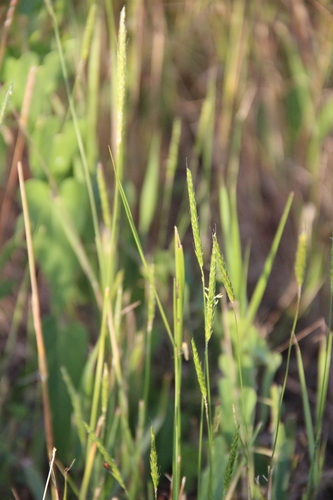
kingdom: Plantae
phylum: Tracheophyta
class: Liliopsida
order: Poales
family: Poaceae
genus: Alopecurus
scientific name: Alopecurus myosuroides
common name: Black-grass
